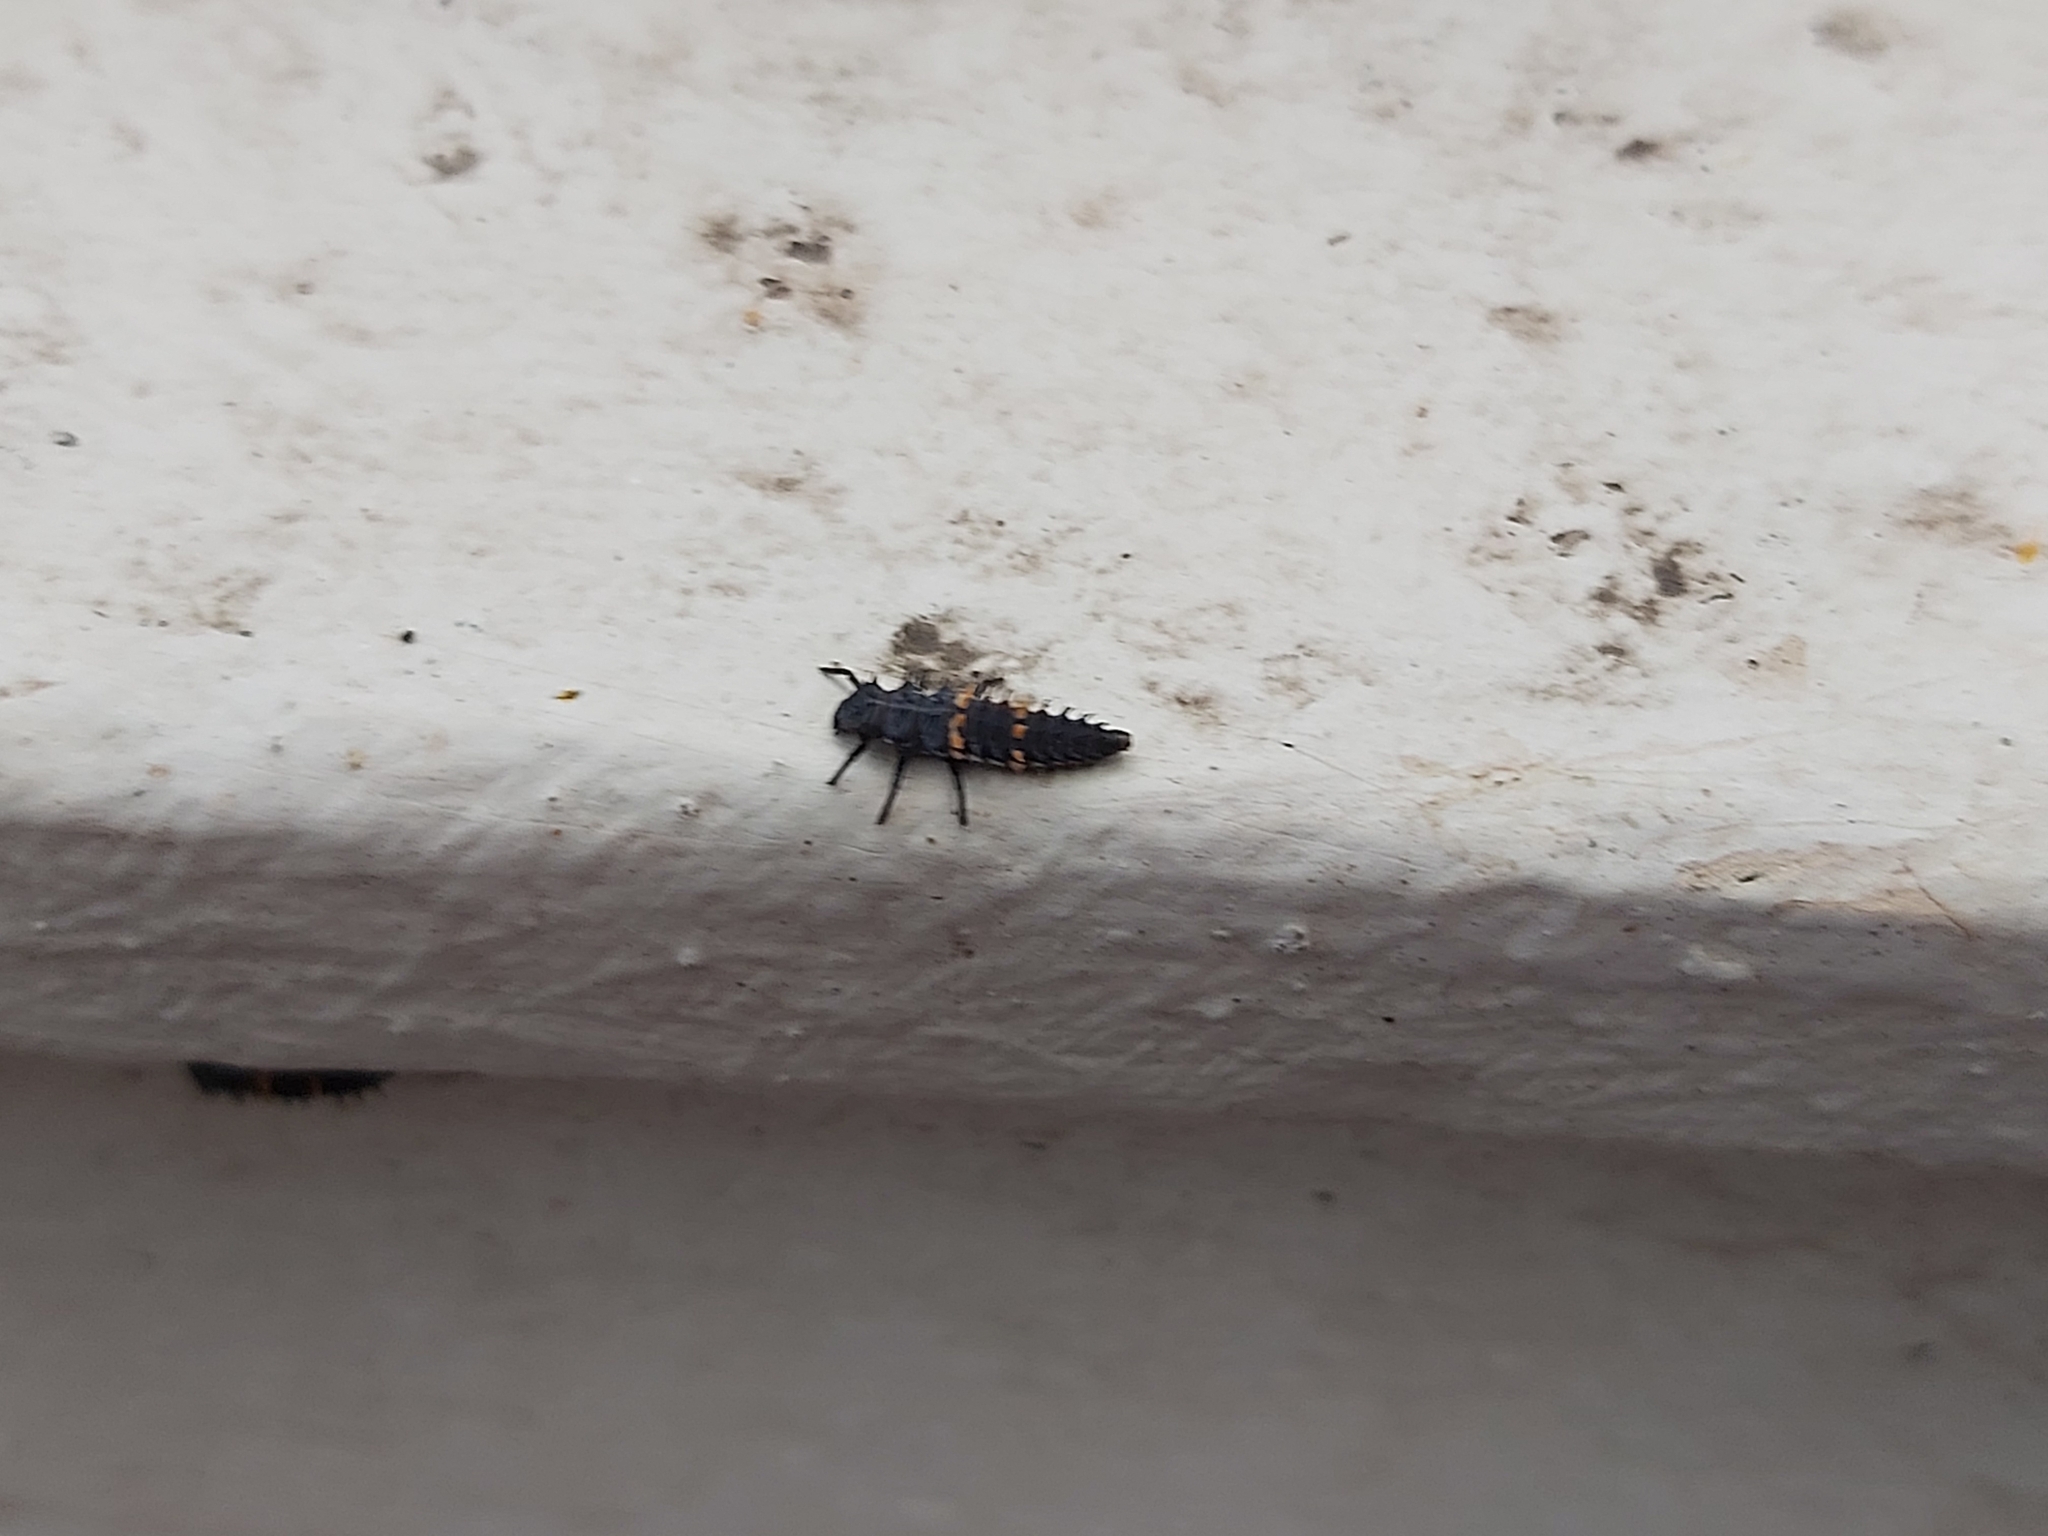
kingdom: Animalia
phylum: Arthropoda
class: Insecta
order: Coleoptera
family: Coccinellidae
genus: Harmonia
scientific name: Harmonia conformis
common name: Common spotted ladybird beetle
